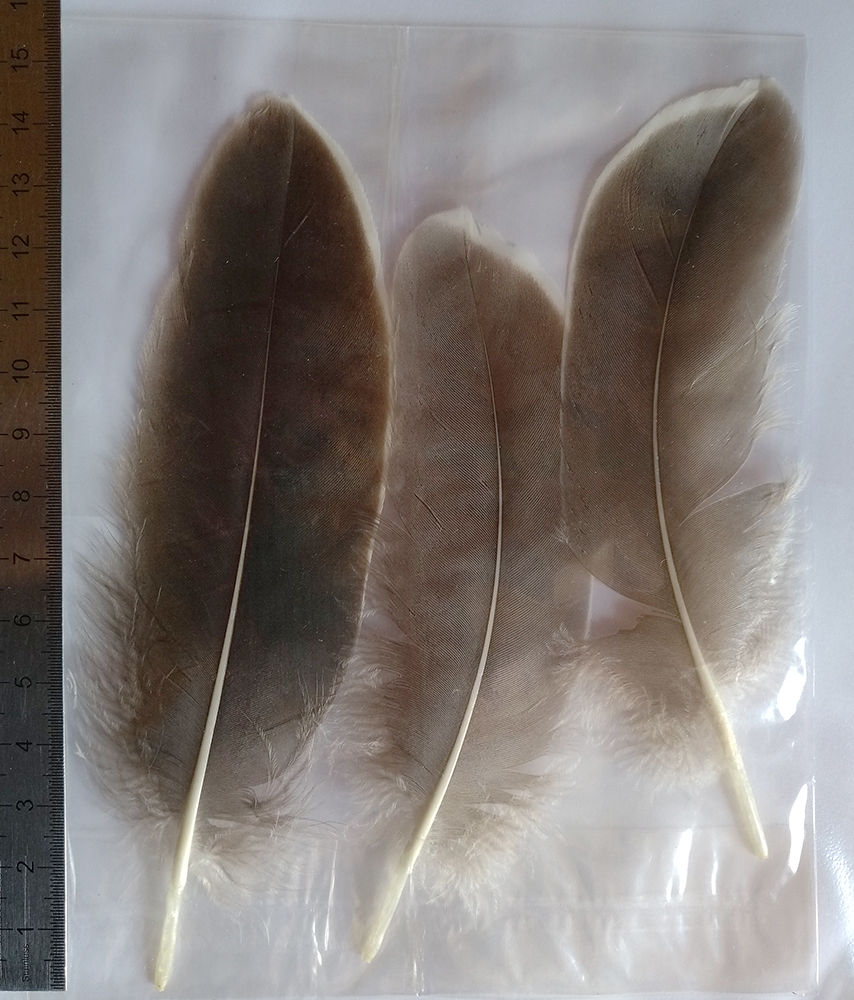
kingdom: Animalia
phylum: Chordata
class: Aves
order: Anseriformes
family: Anatidae
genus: Anser
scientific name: Anser anser
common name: Greylag goose
